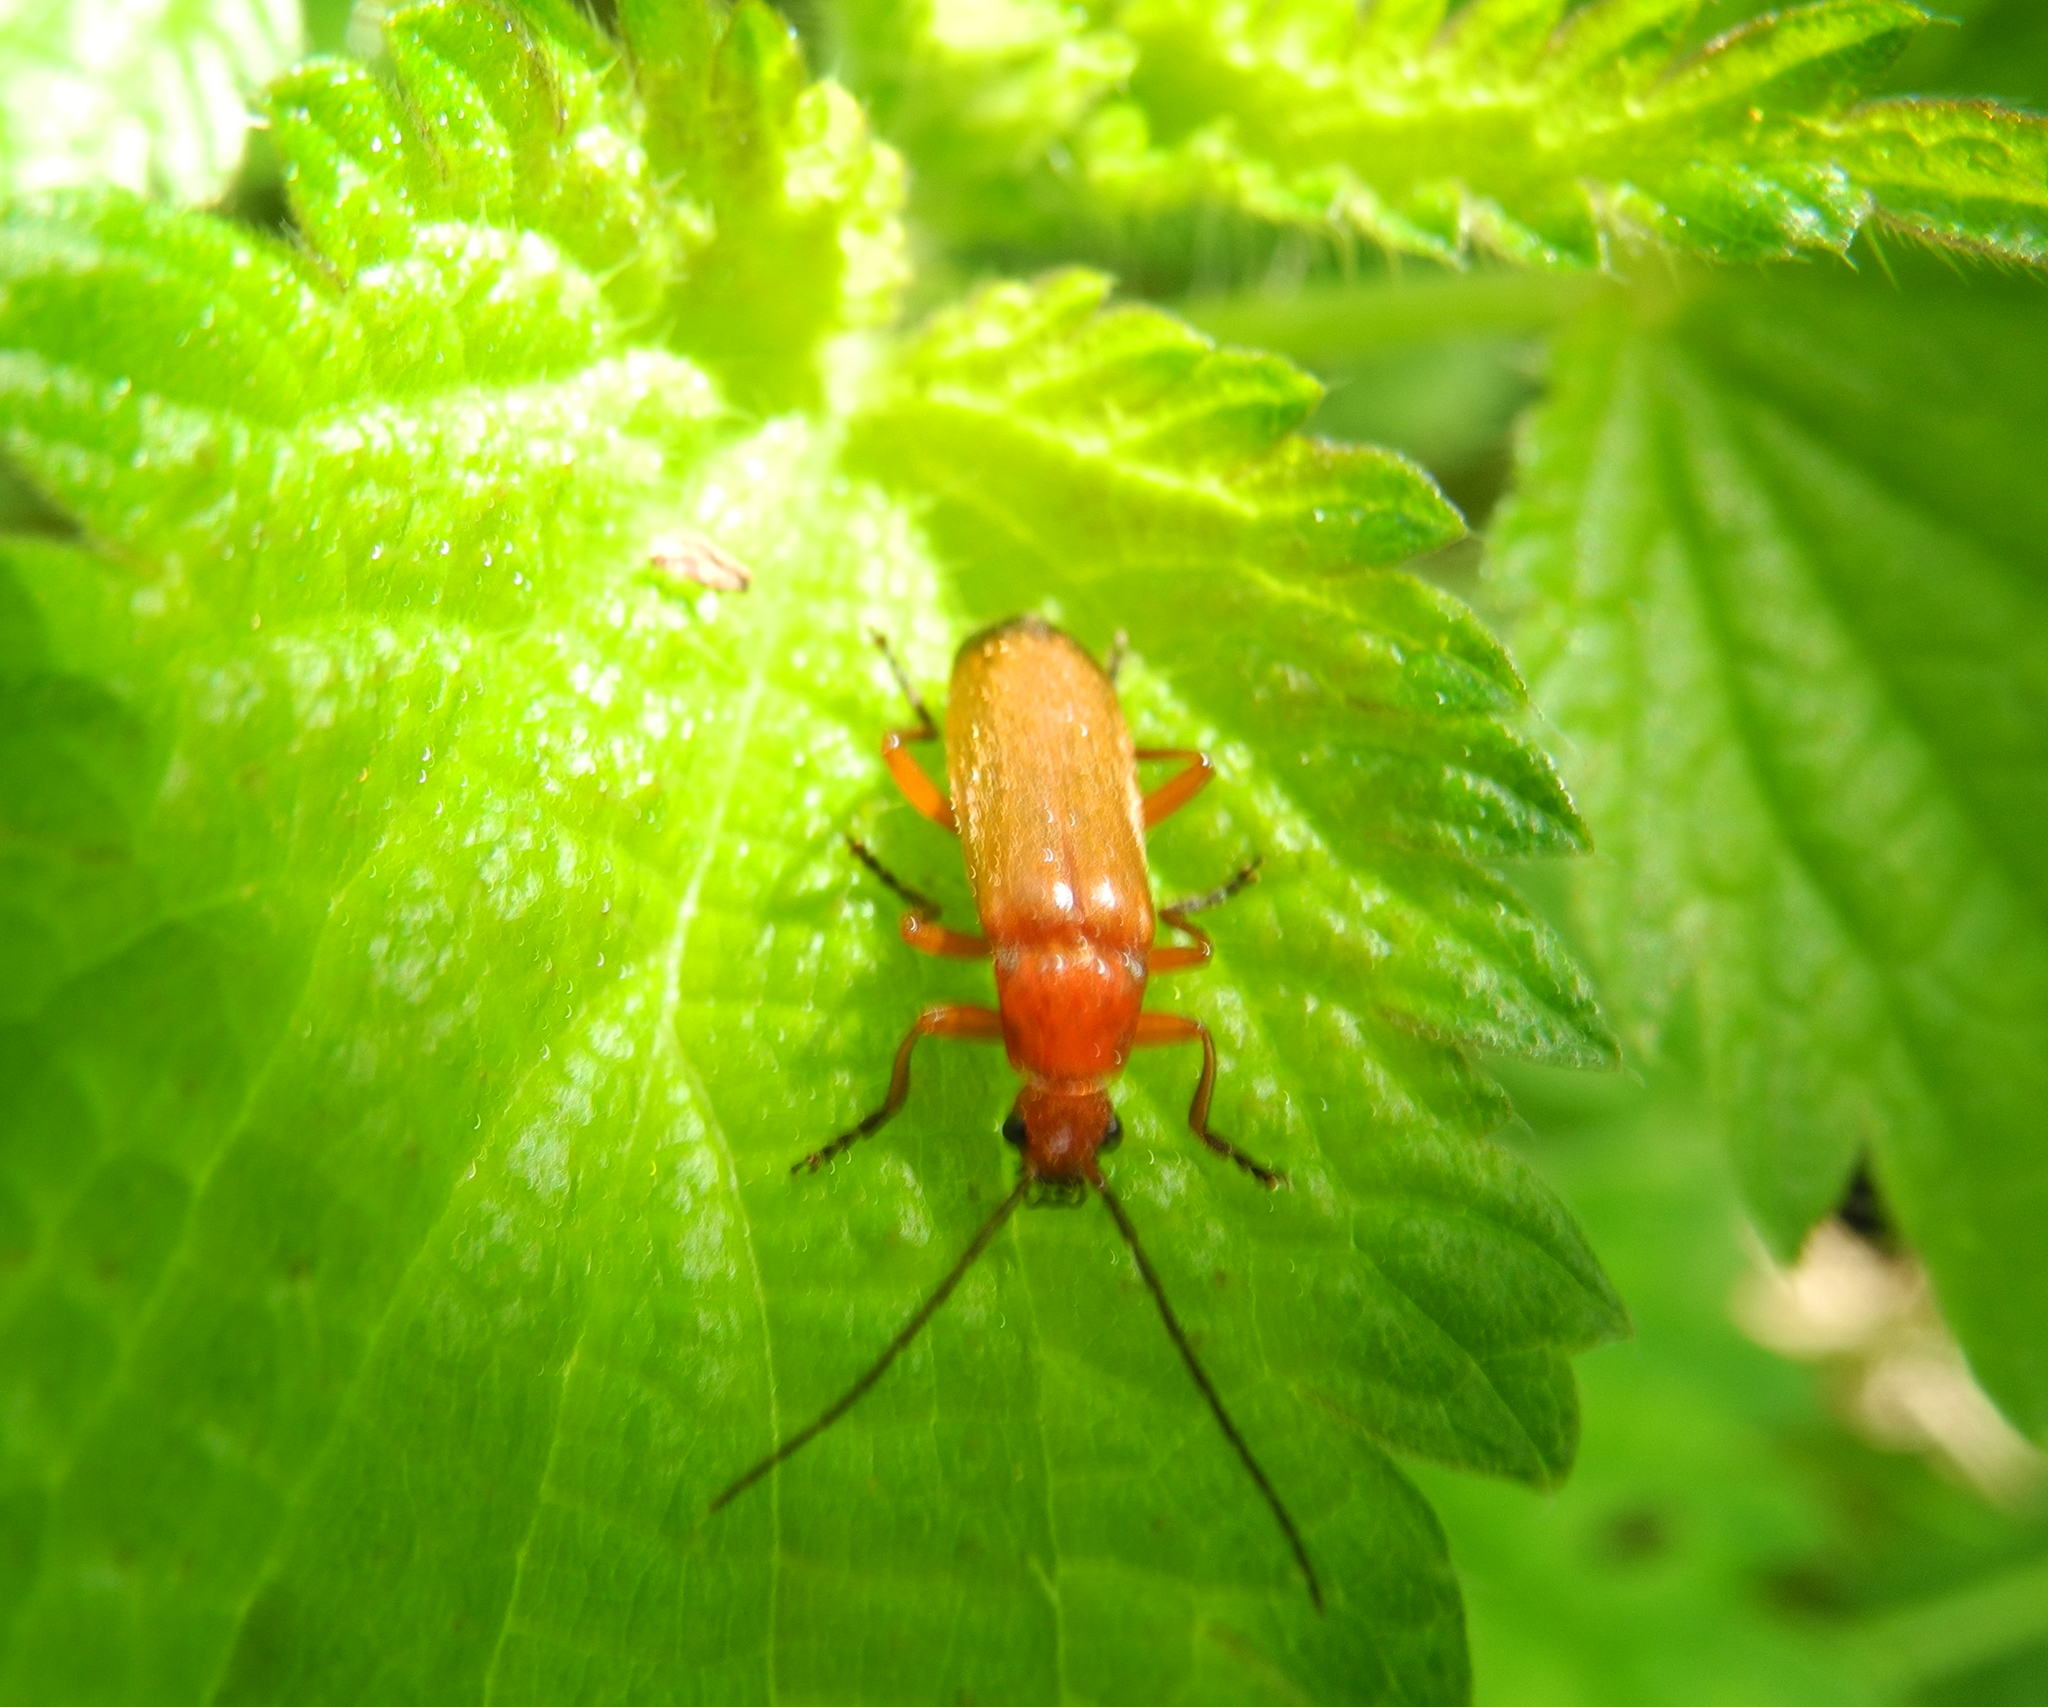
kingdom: Animalia
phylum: Arthropoda
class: Insecta
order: Coleoptera
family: Cantharidae
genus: Rhagonycha
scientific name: Rhagonycha fulva
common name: Common red soldier beetle
